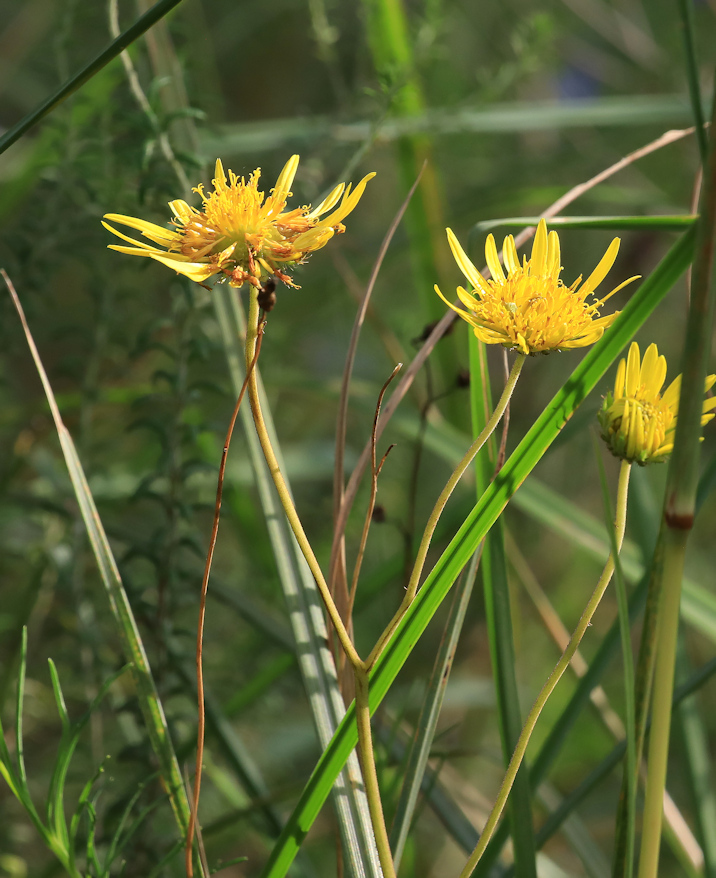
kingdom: Plantae
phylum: Tracheophyta
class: Magnoliopsida
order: Asterales
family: Asteraceae
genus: Berkheya
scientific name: Berkheya setifera
